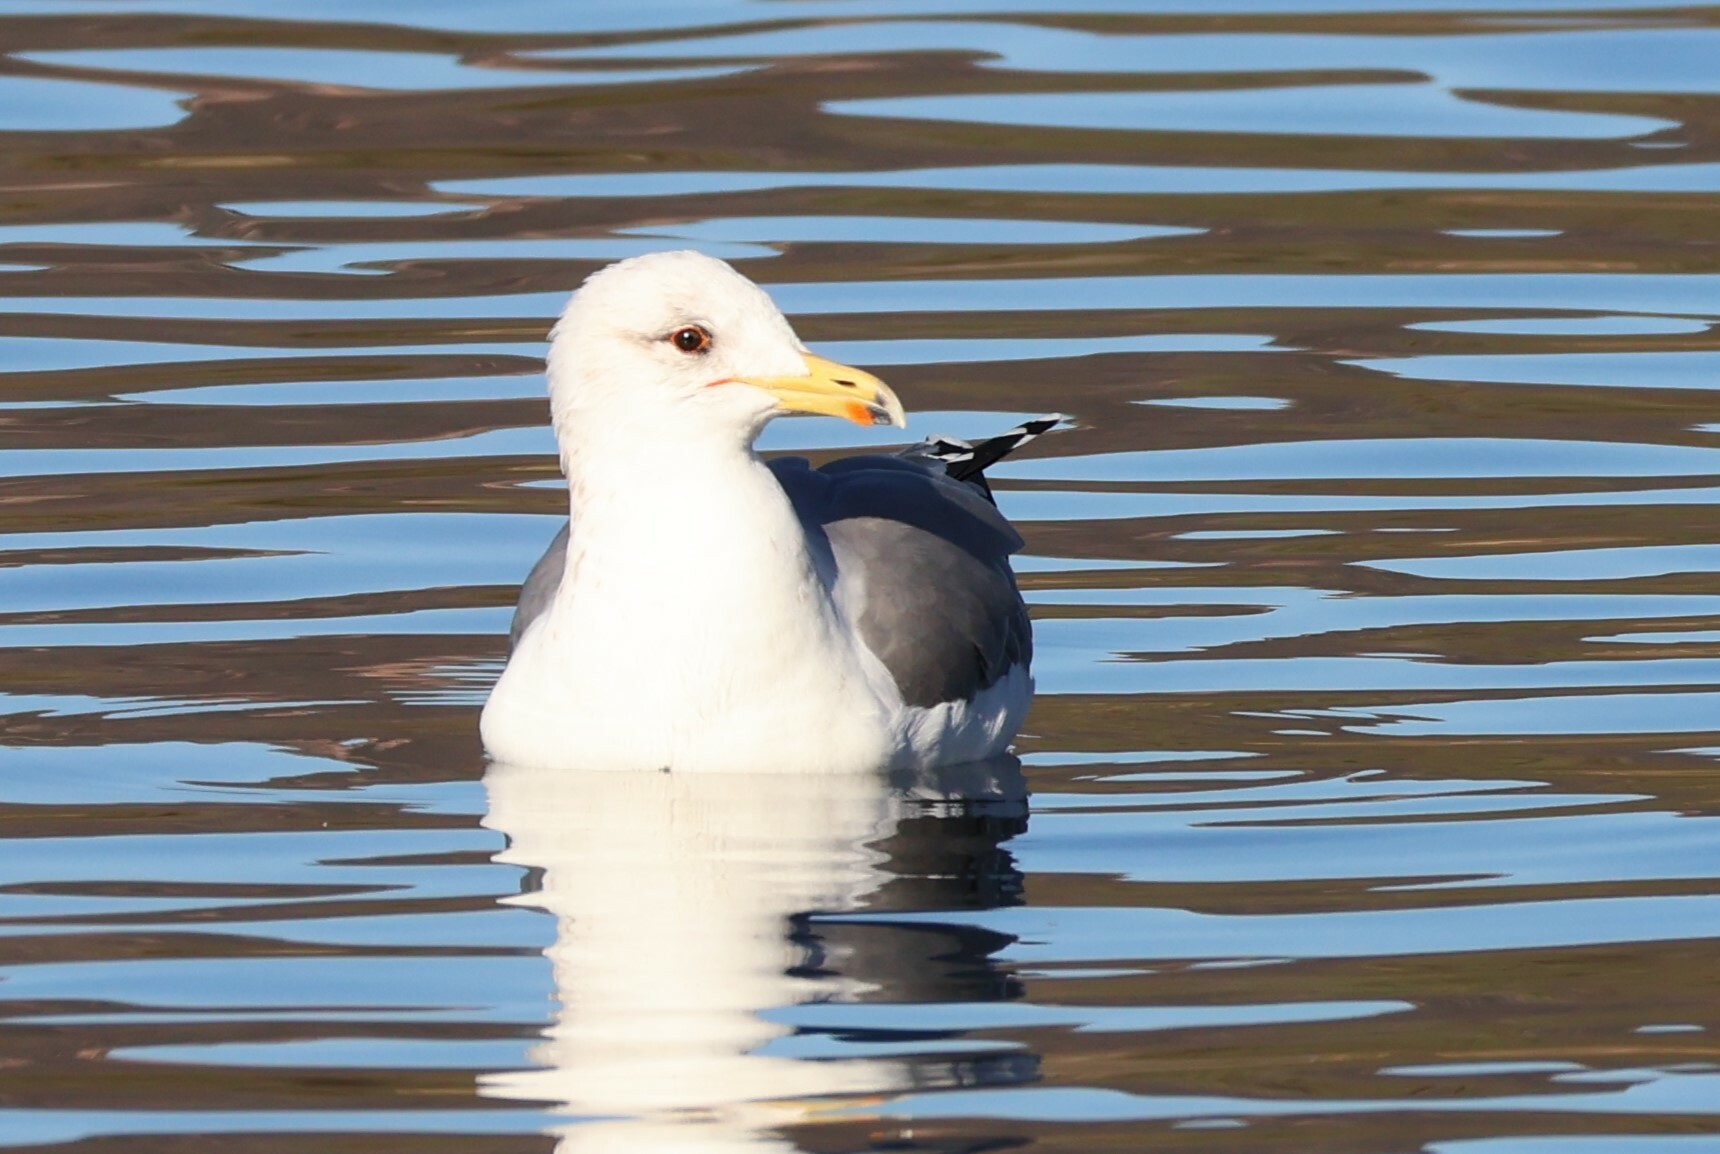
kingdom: Animalia
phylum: Chordata
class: Aves
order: Charadriiformes
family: Laridae
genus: Larus
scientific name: Larus californicus
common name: California gull
